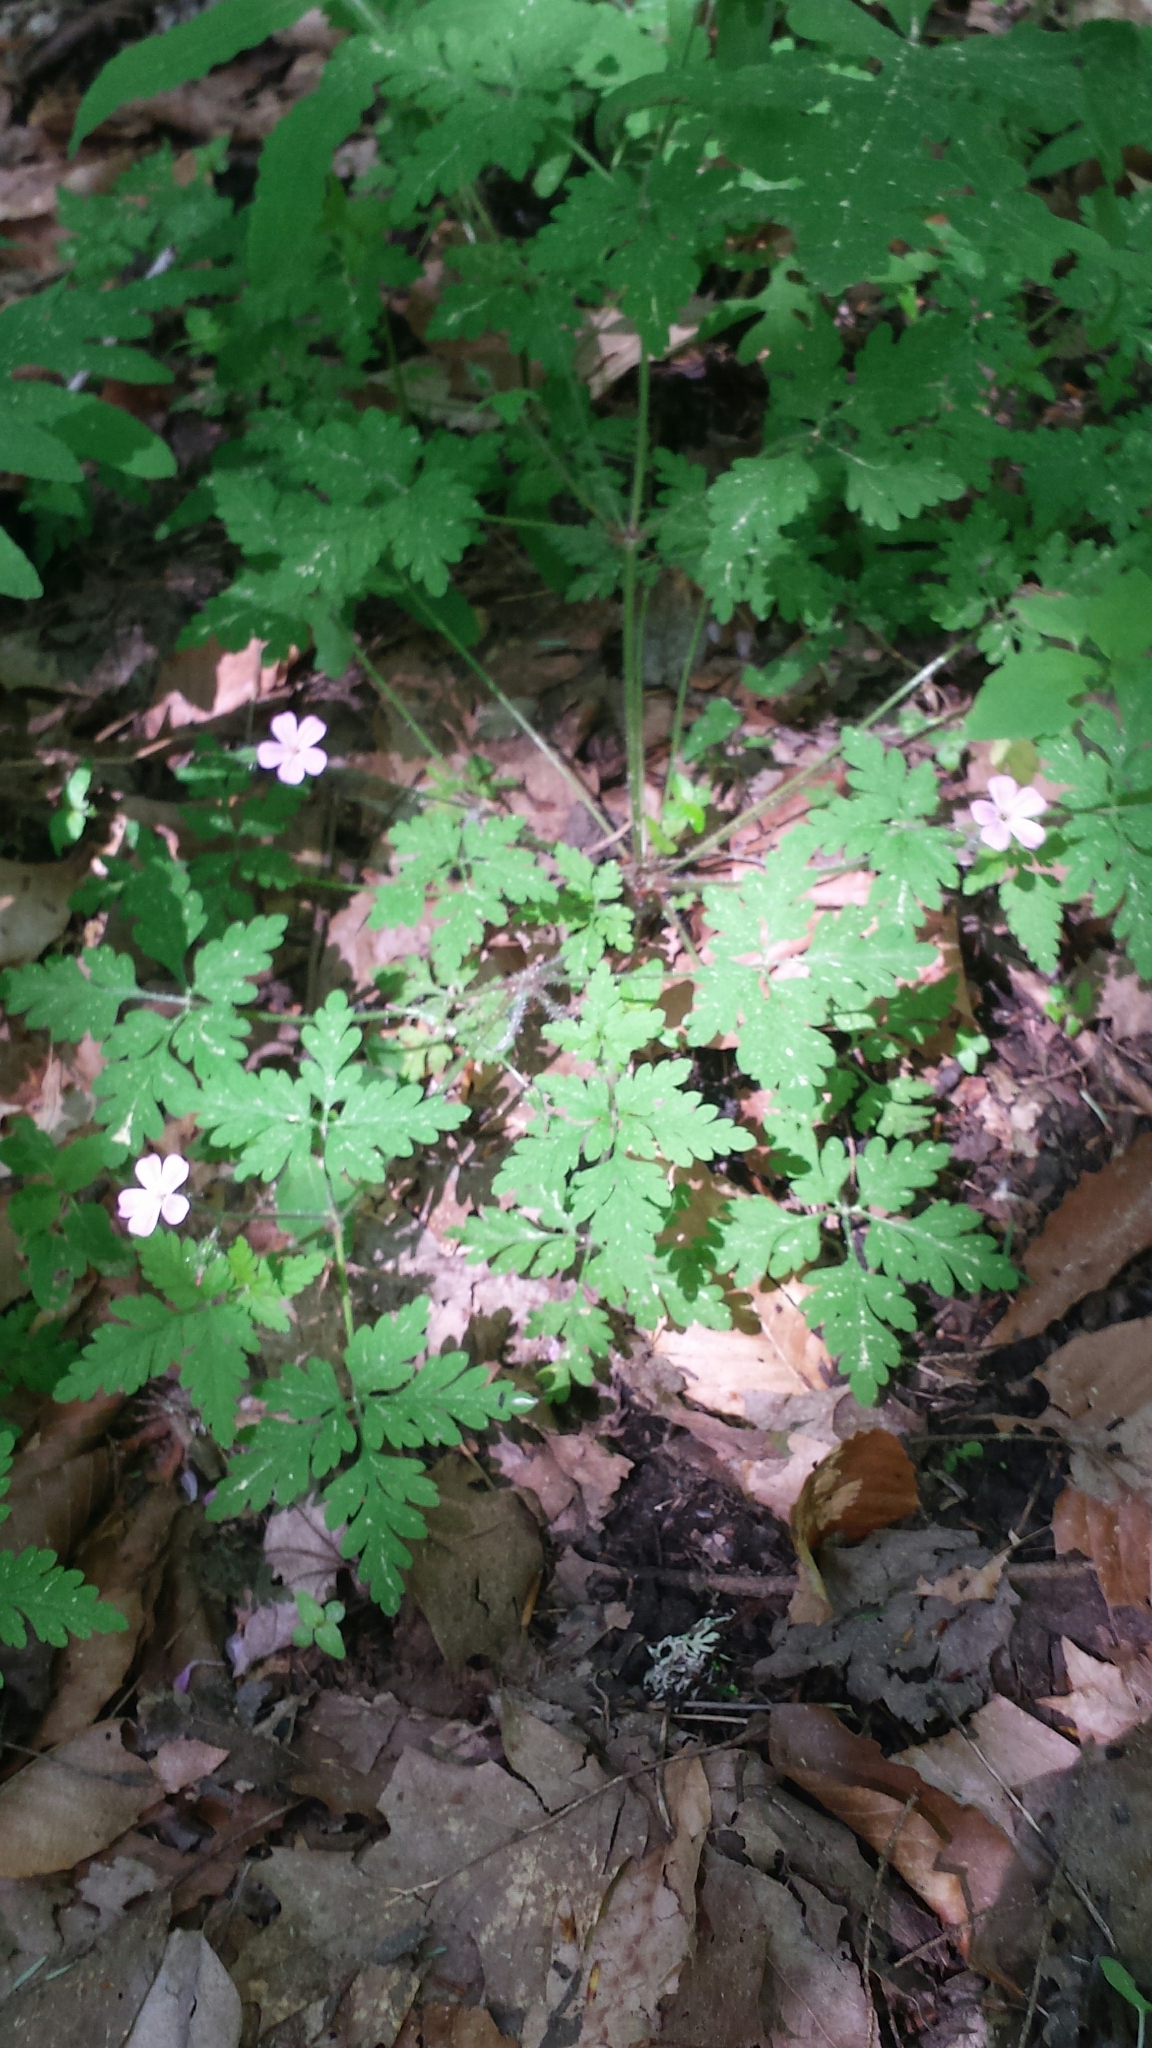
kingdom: Plantae
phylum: Tracheophyta
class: Magnoliopsida
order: Geraniales
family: Geraniaceae
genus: Geranium
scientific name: Geranium robertianum
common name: Herb-robert
